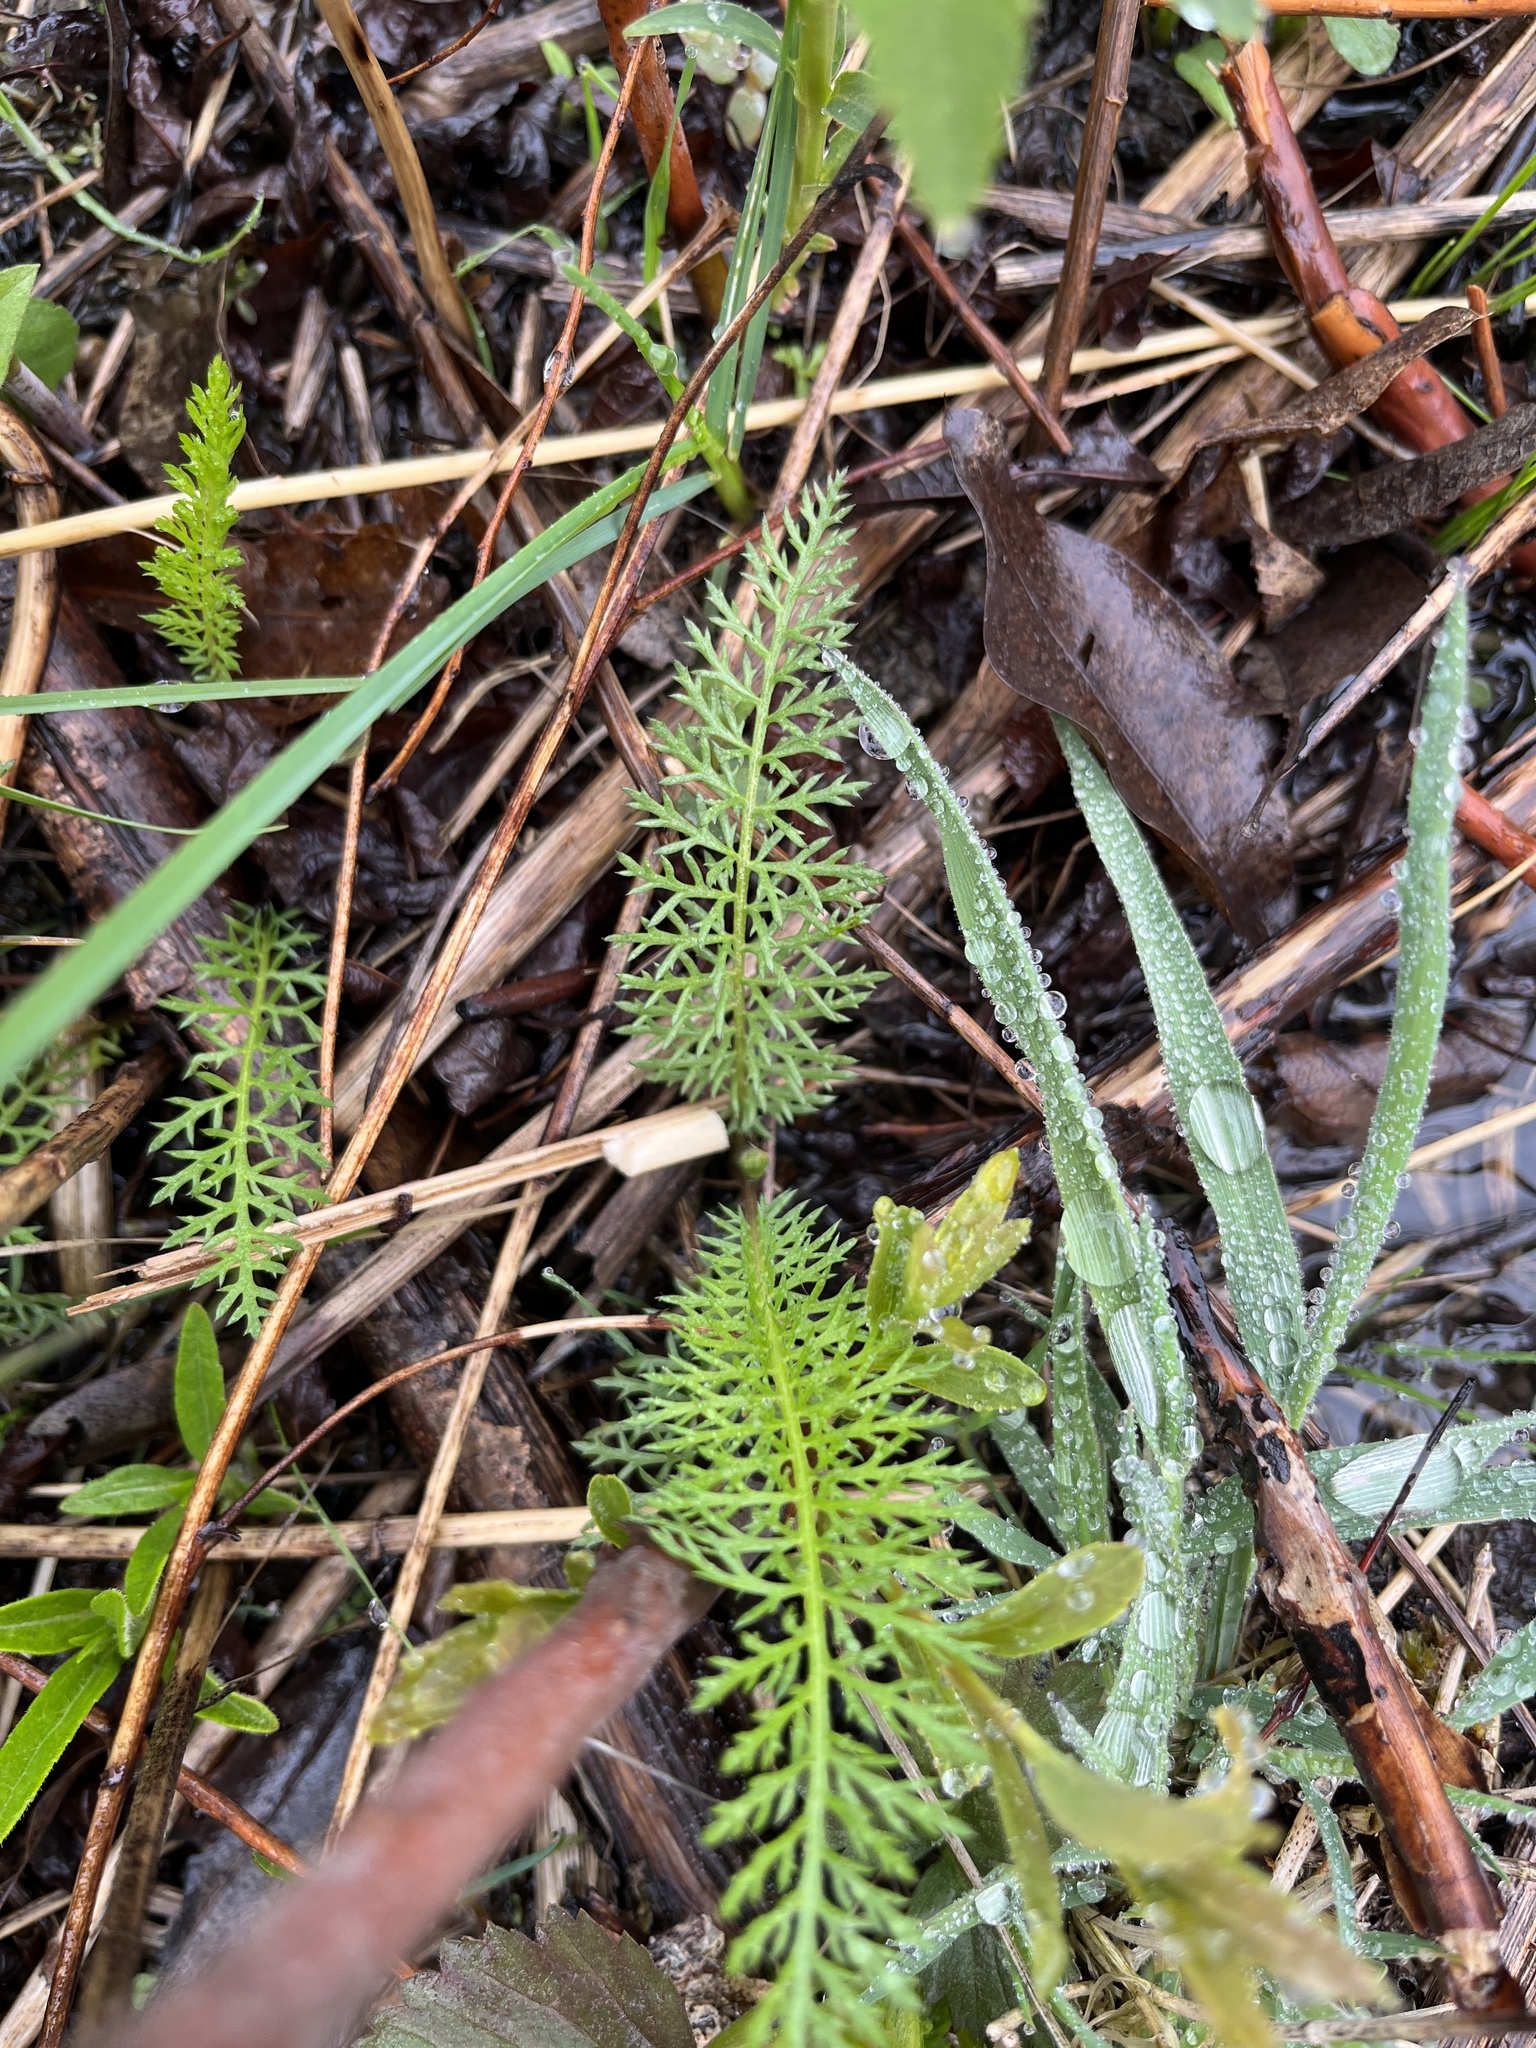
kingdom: Plantae
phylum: Tracheophyta
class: Magnoliopsida
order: Asterales
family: Asteraceae
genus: Achillea
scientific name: Achillea millefolium
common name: Yarrow
